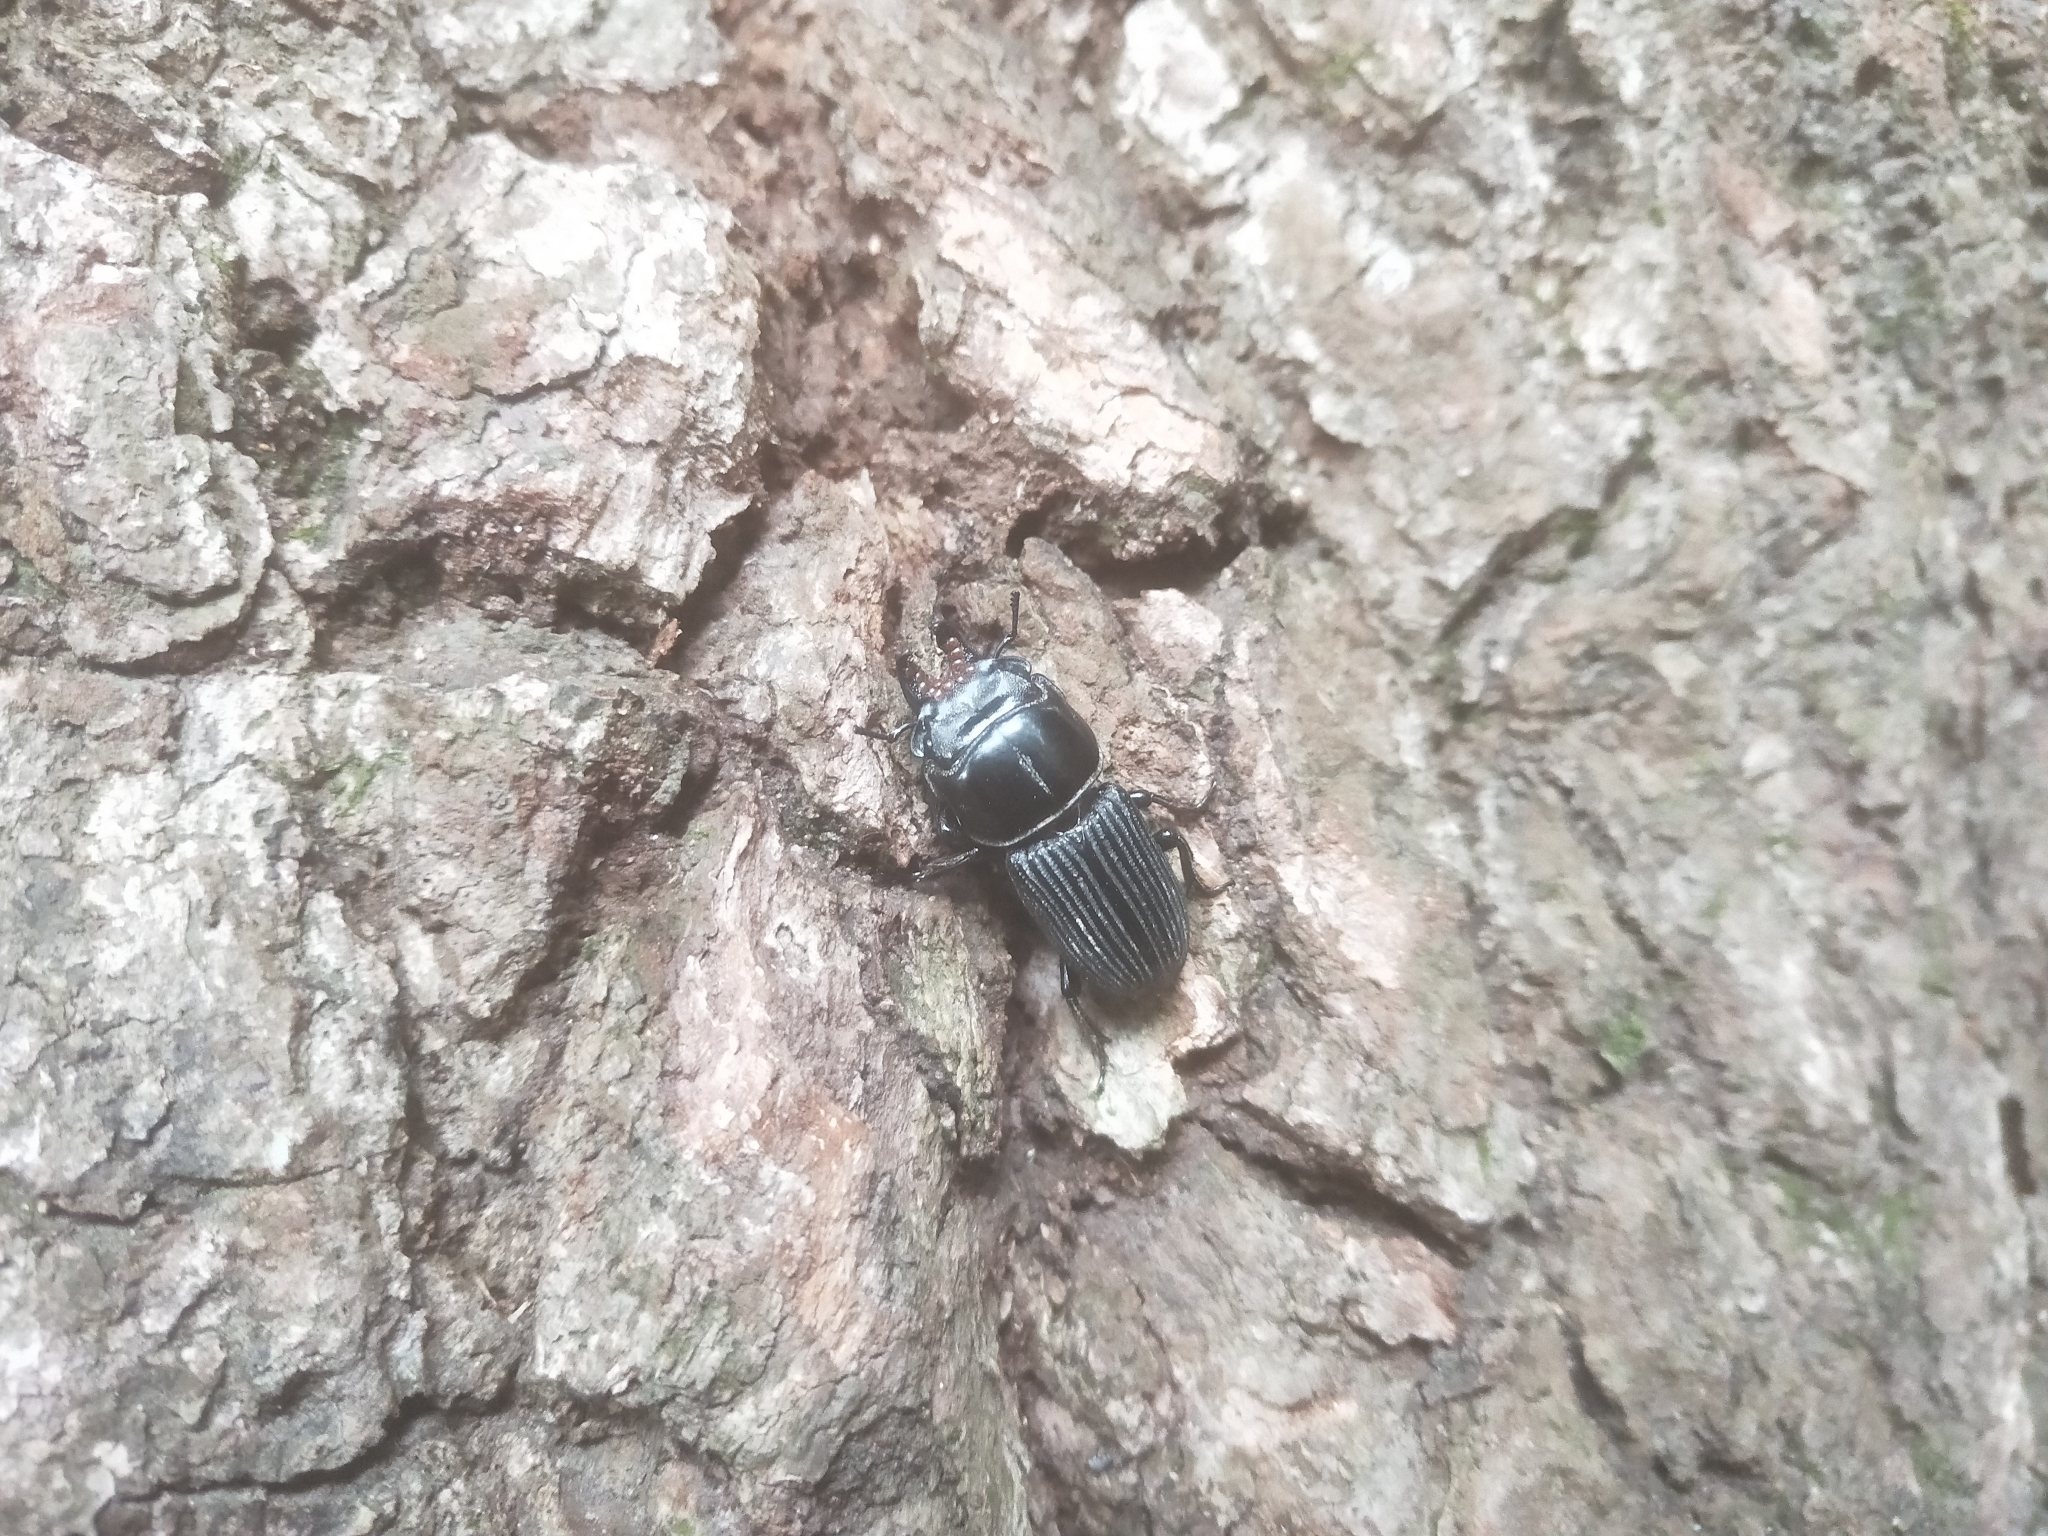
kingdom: Animalia
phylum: Arthropoda
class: Insecta
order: Coleoptera
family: Lucanidae
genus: Nigidionus
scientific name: Nigidionus parryi
